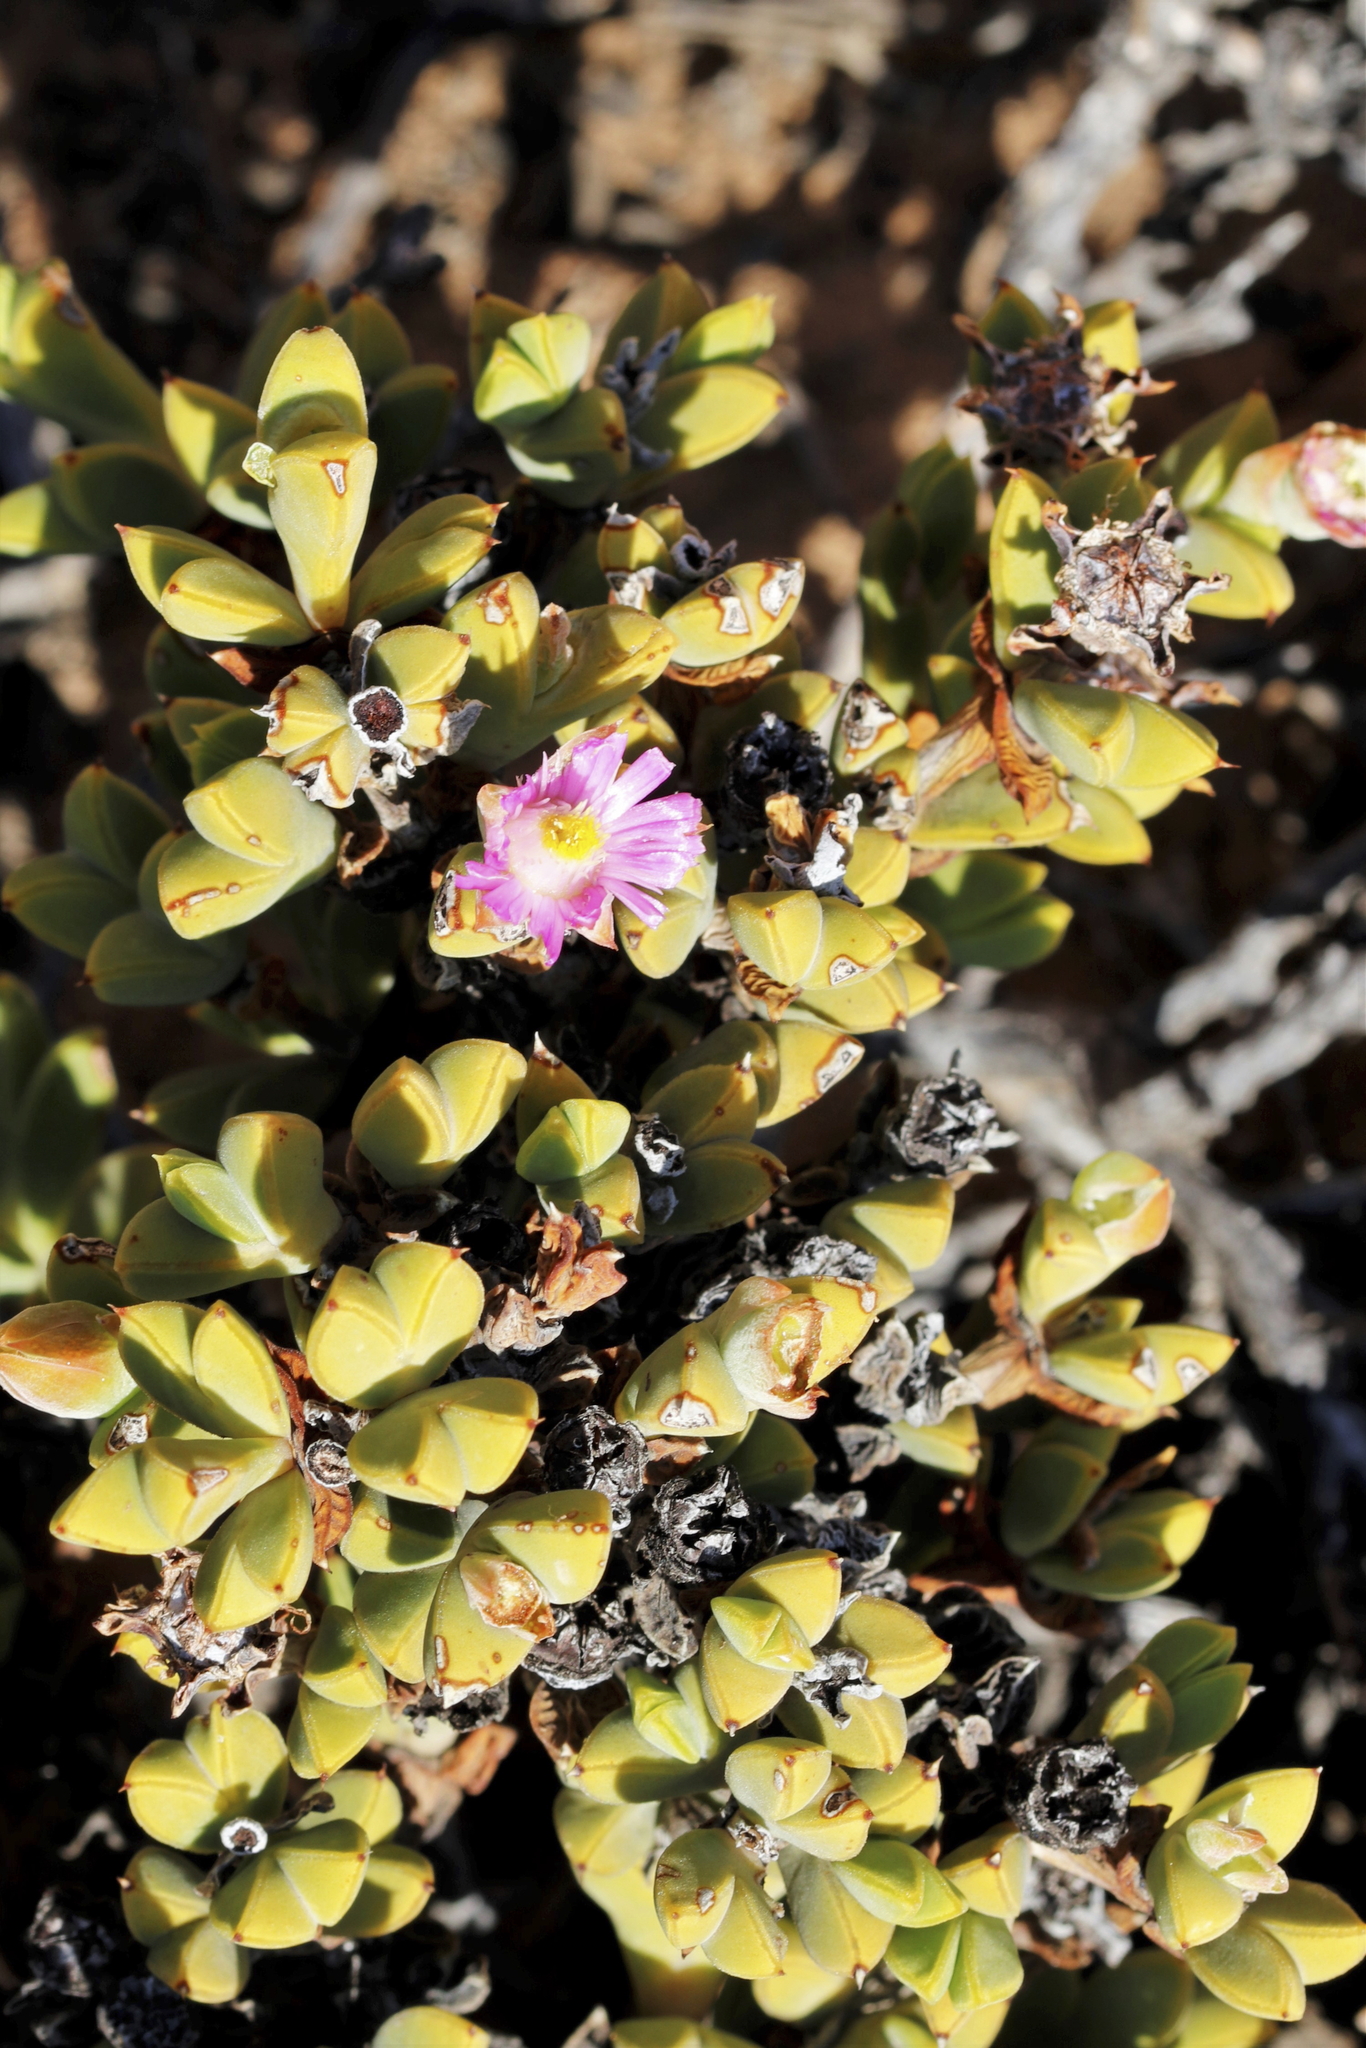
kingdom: Plantae
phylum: Tracheophyta
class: Magnoliopsida
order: Caryophyllales
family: Aizoaceae
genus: Braunsia
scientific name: Braunsia apiculata
